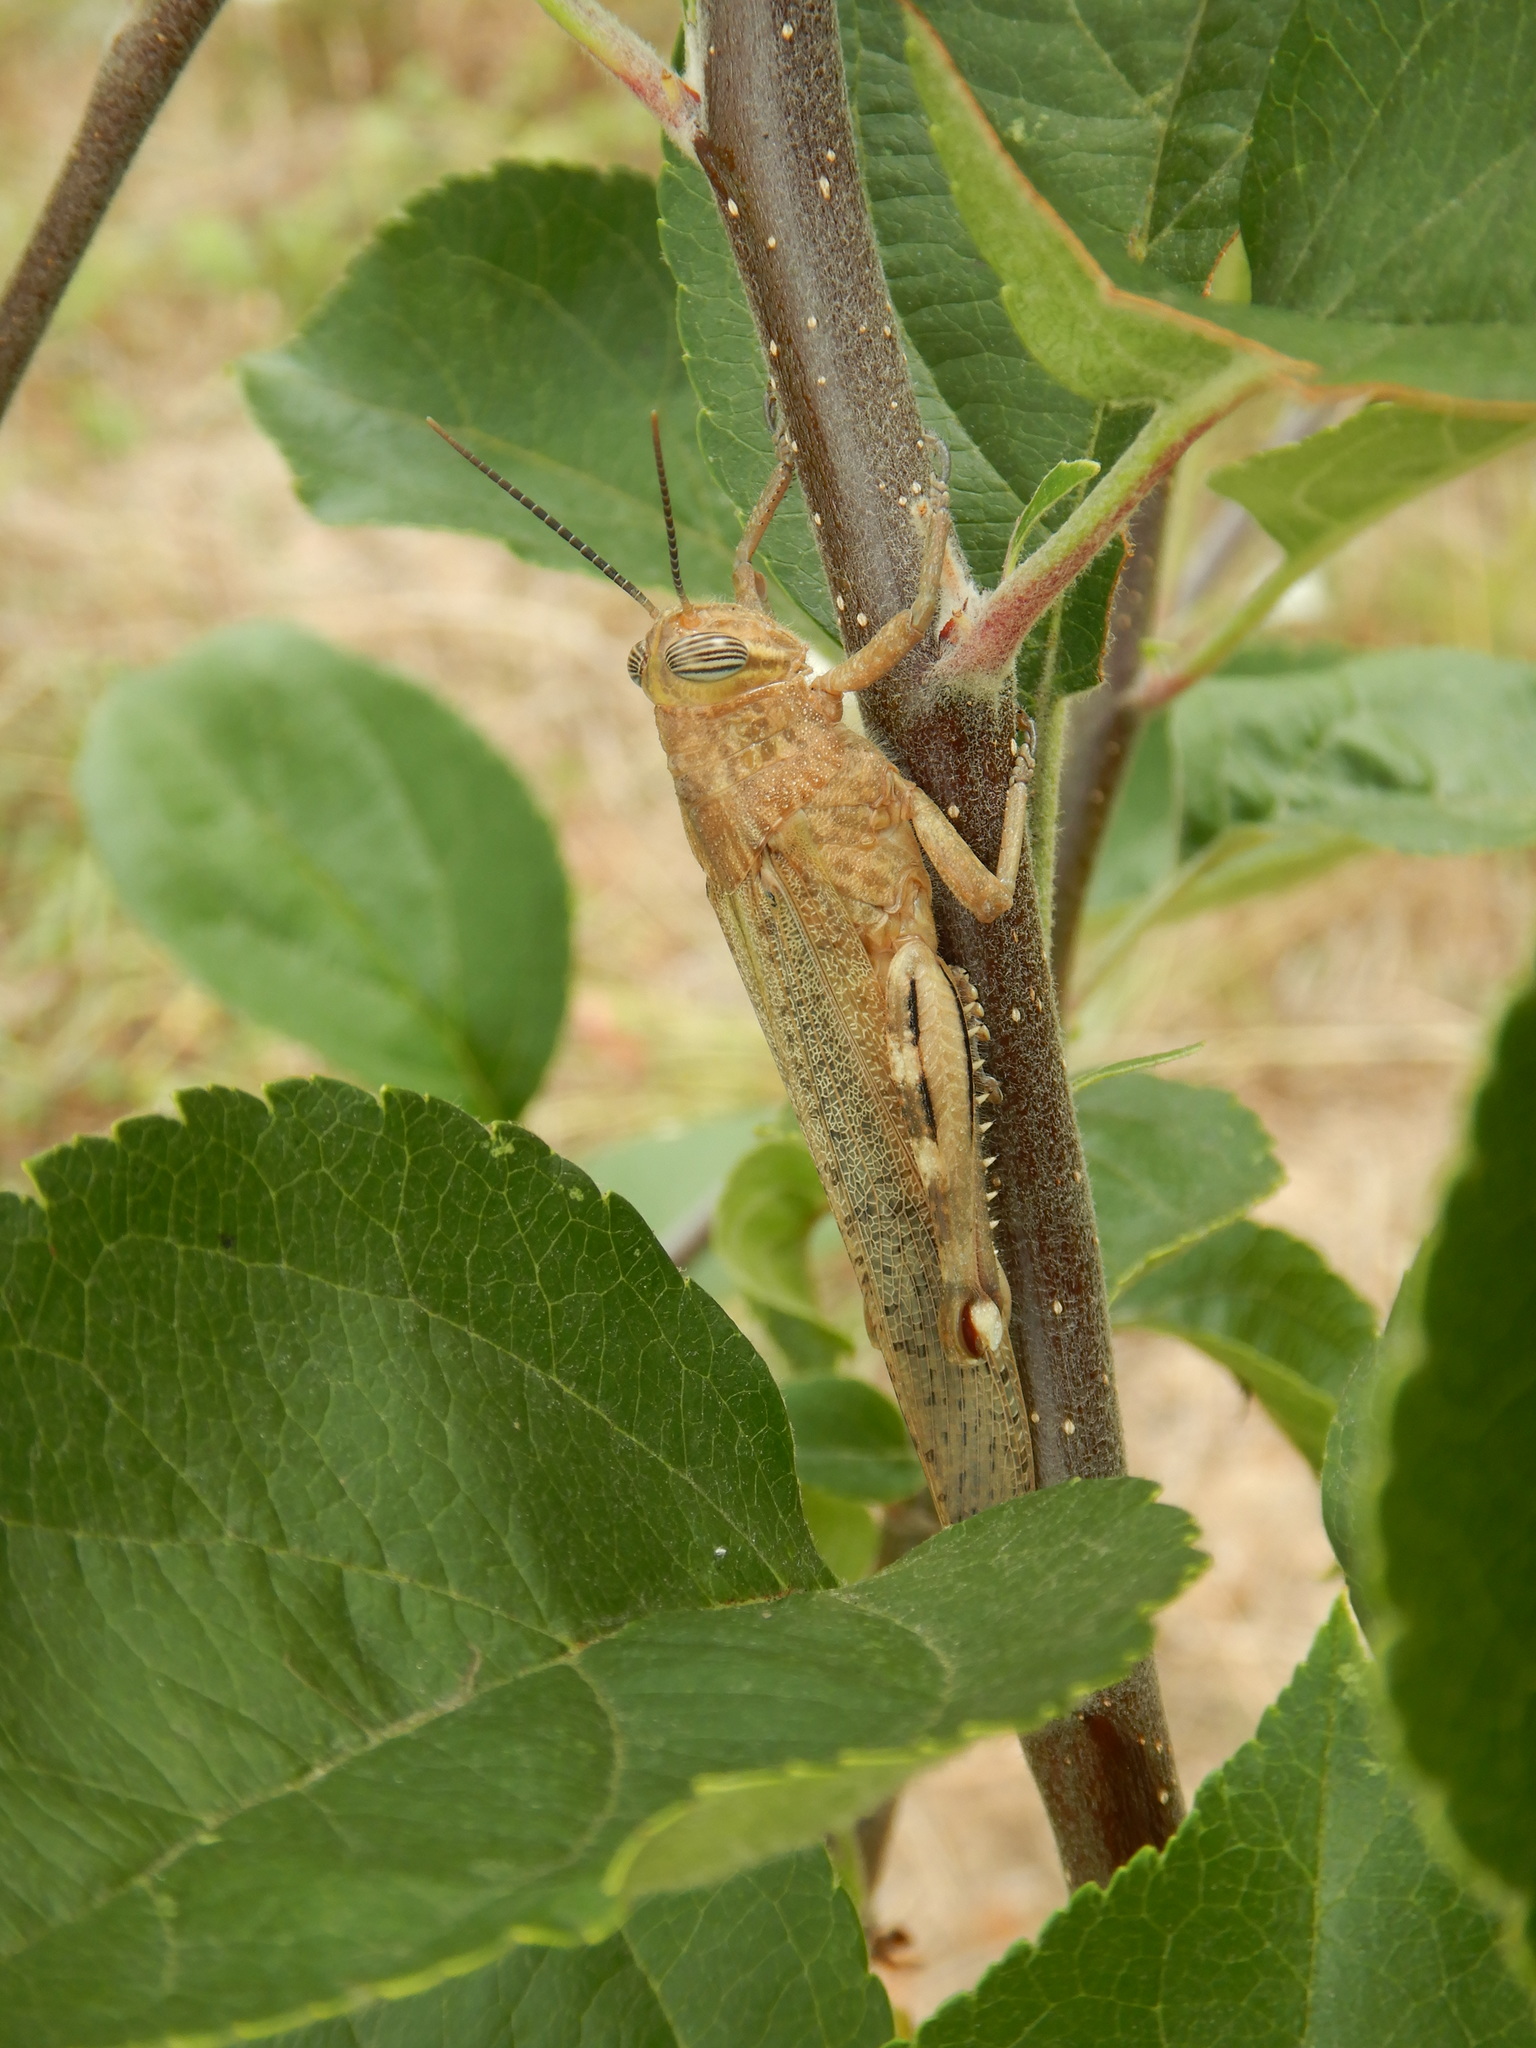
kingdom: Animalia
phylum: Arthropoda
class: Insecta
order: Orthoptera
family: Acrididae
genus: Anacridium
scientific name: Anacridium aegyptium
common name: Egyptian grasshopper
